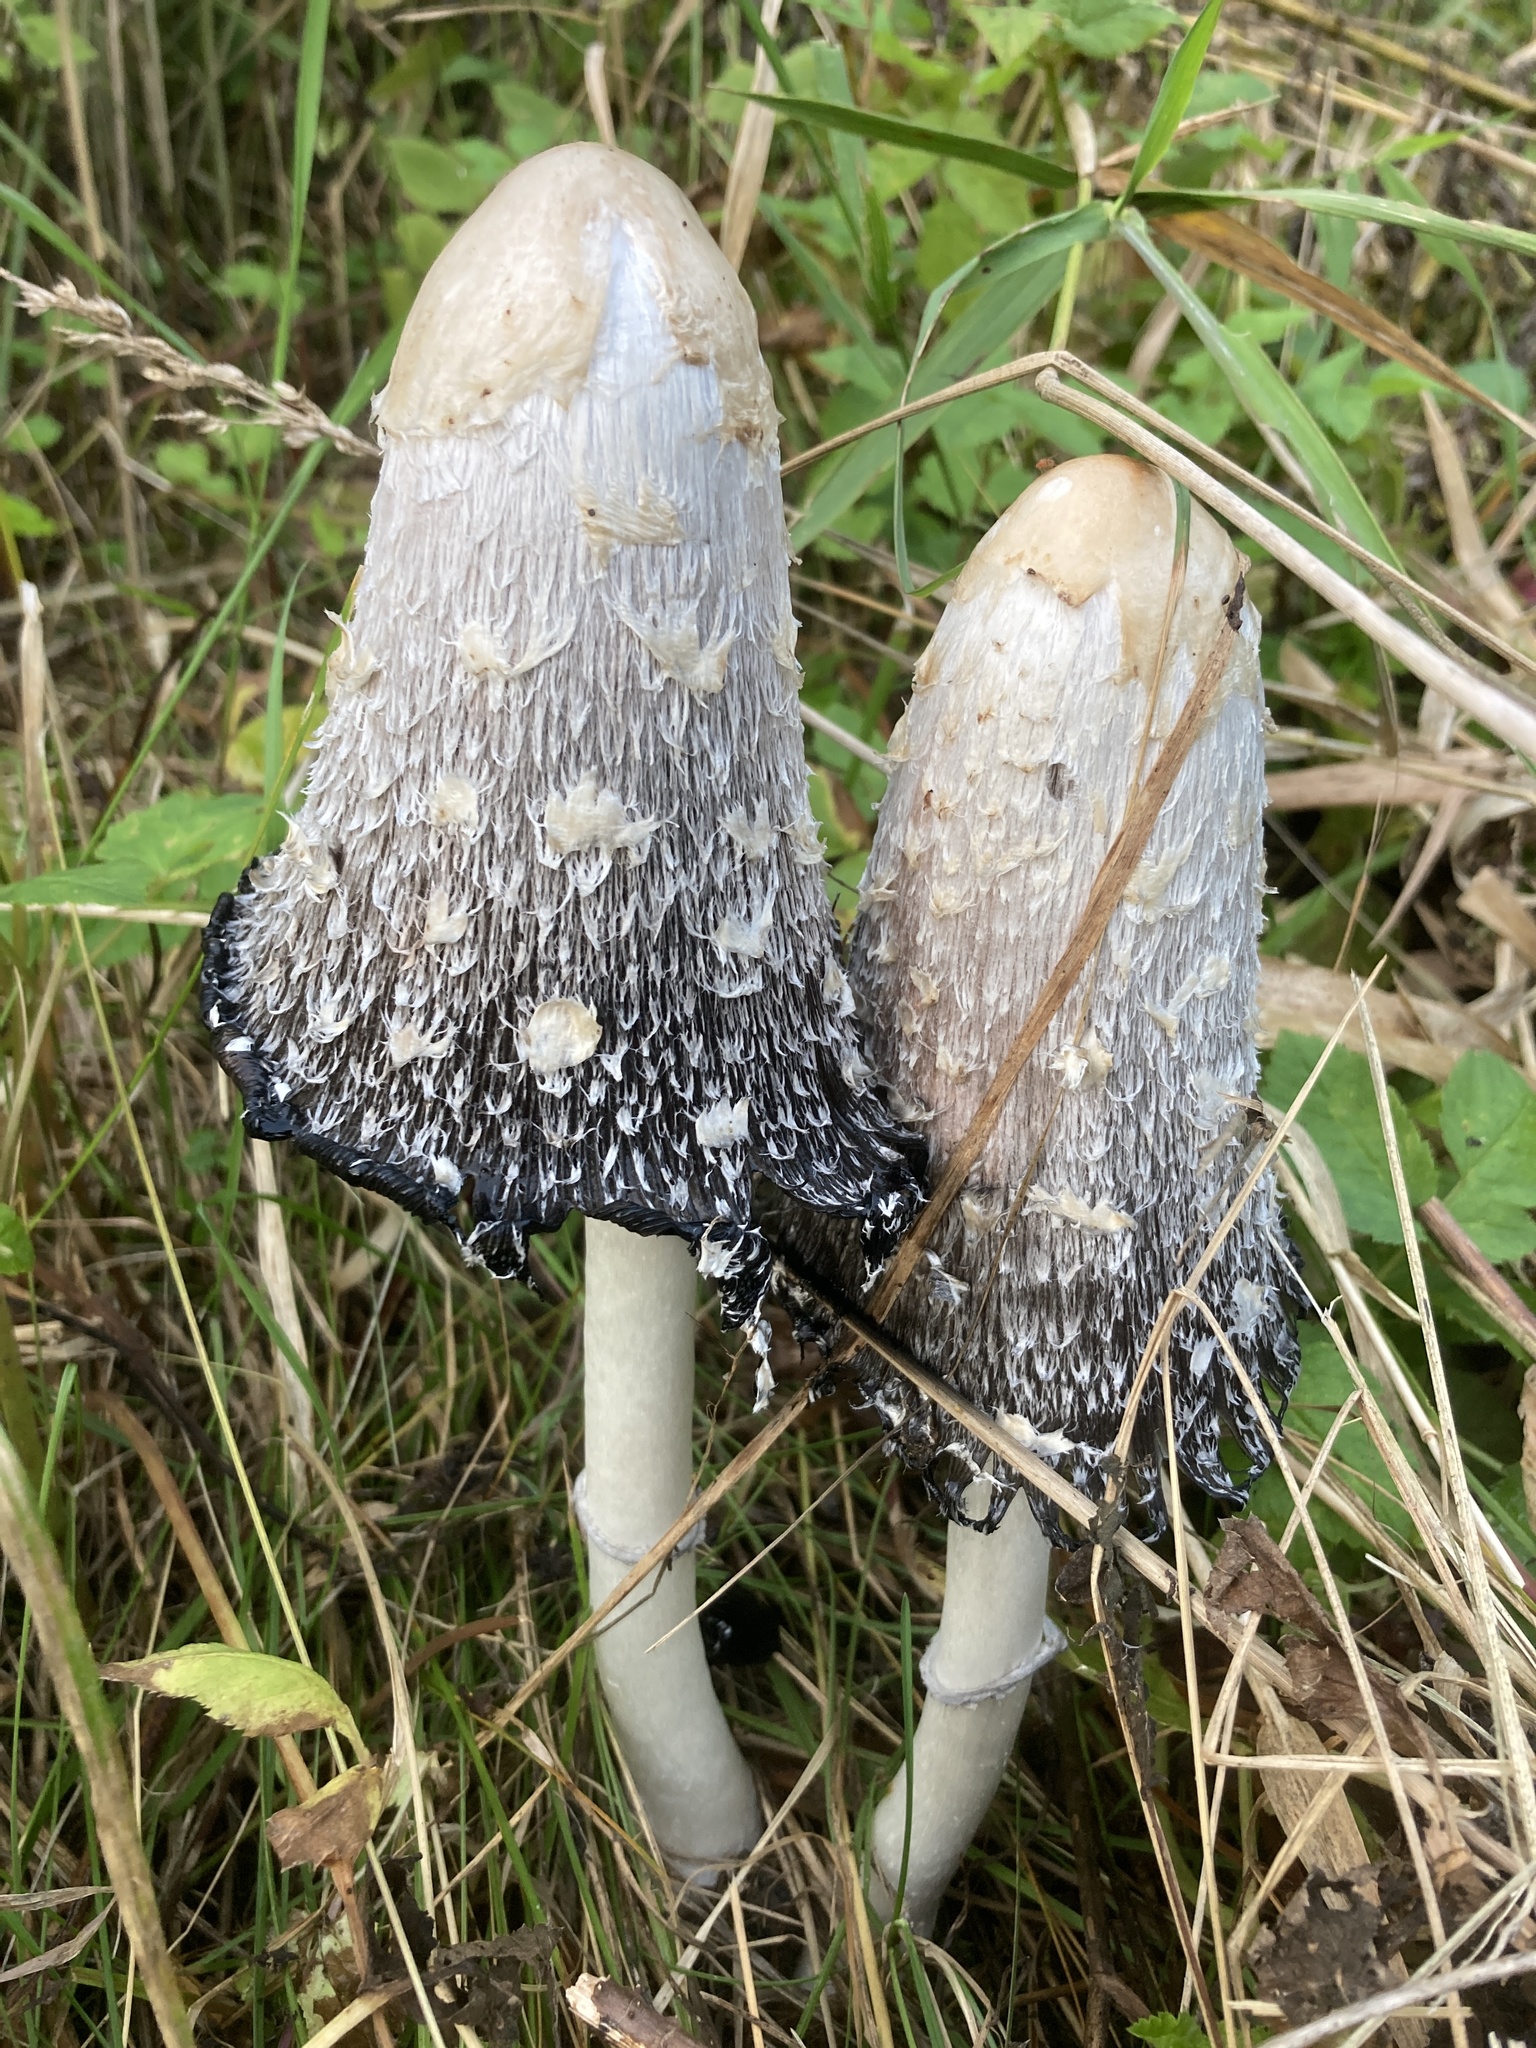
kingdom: Fungi
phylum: Basidiomycota
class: Agaricomycetes
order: Agaricales
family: Agaricaceae
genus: Coprinus
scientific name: Coprinus comatus
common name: Lawyer's wig
